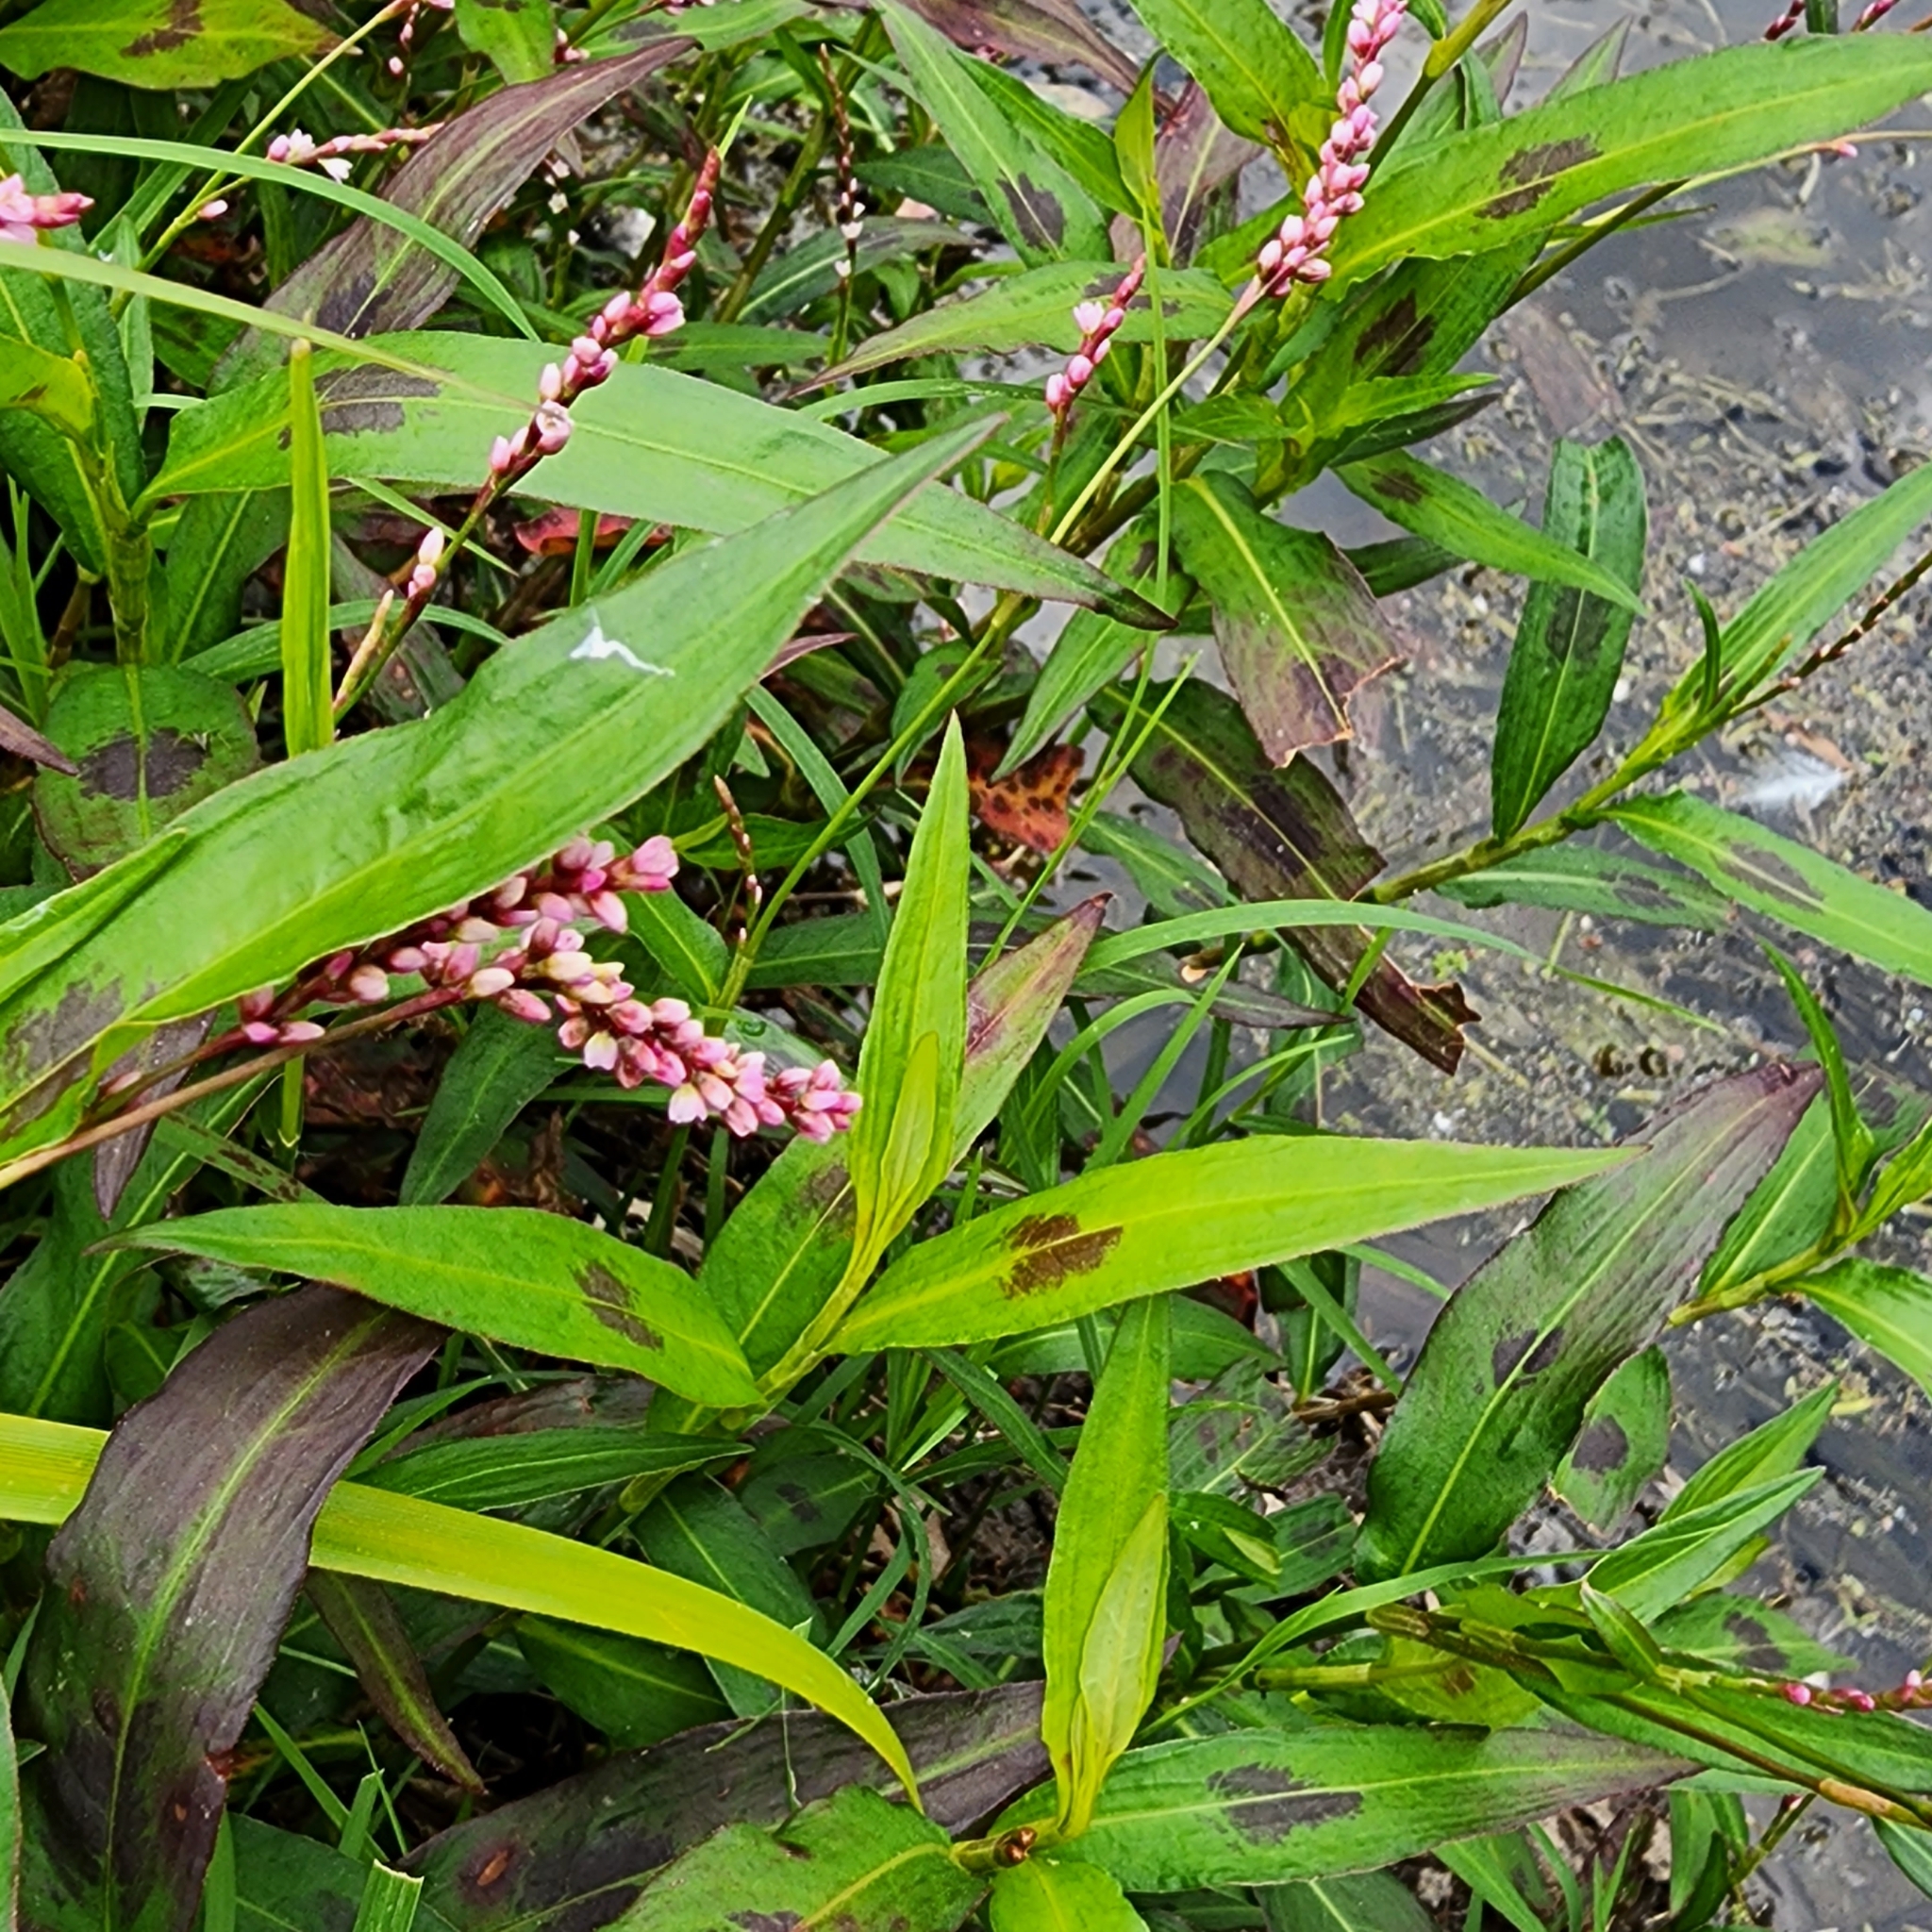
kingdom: Plantae
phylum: Tracheophyta
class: Magnoliopsida
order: Caryophyllales
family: Polygonaceae
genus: Persicaria
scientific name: Persicaria decipiens
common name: Willow-weed
